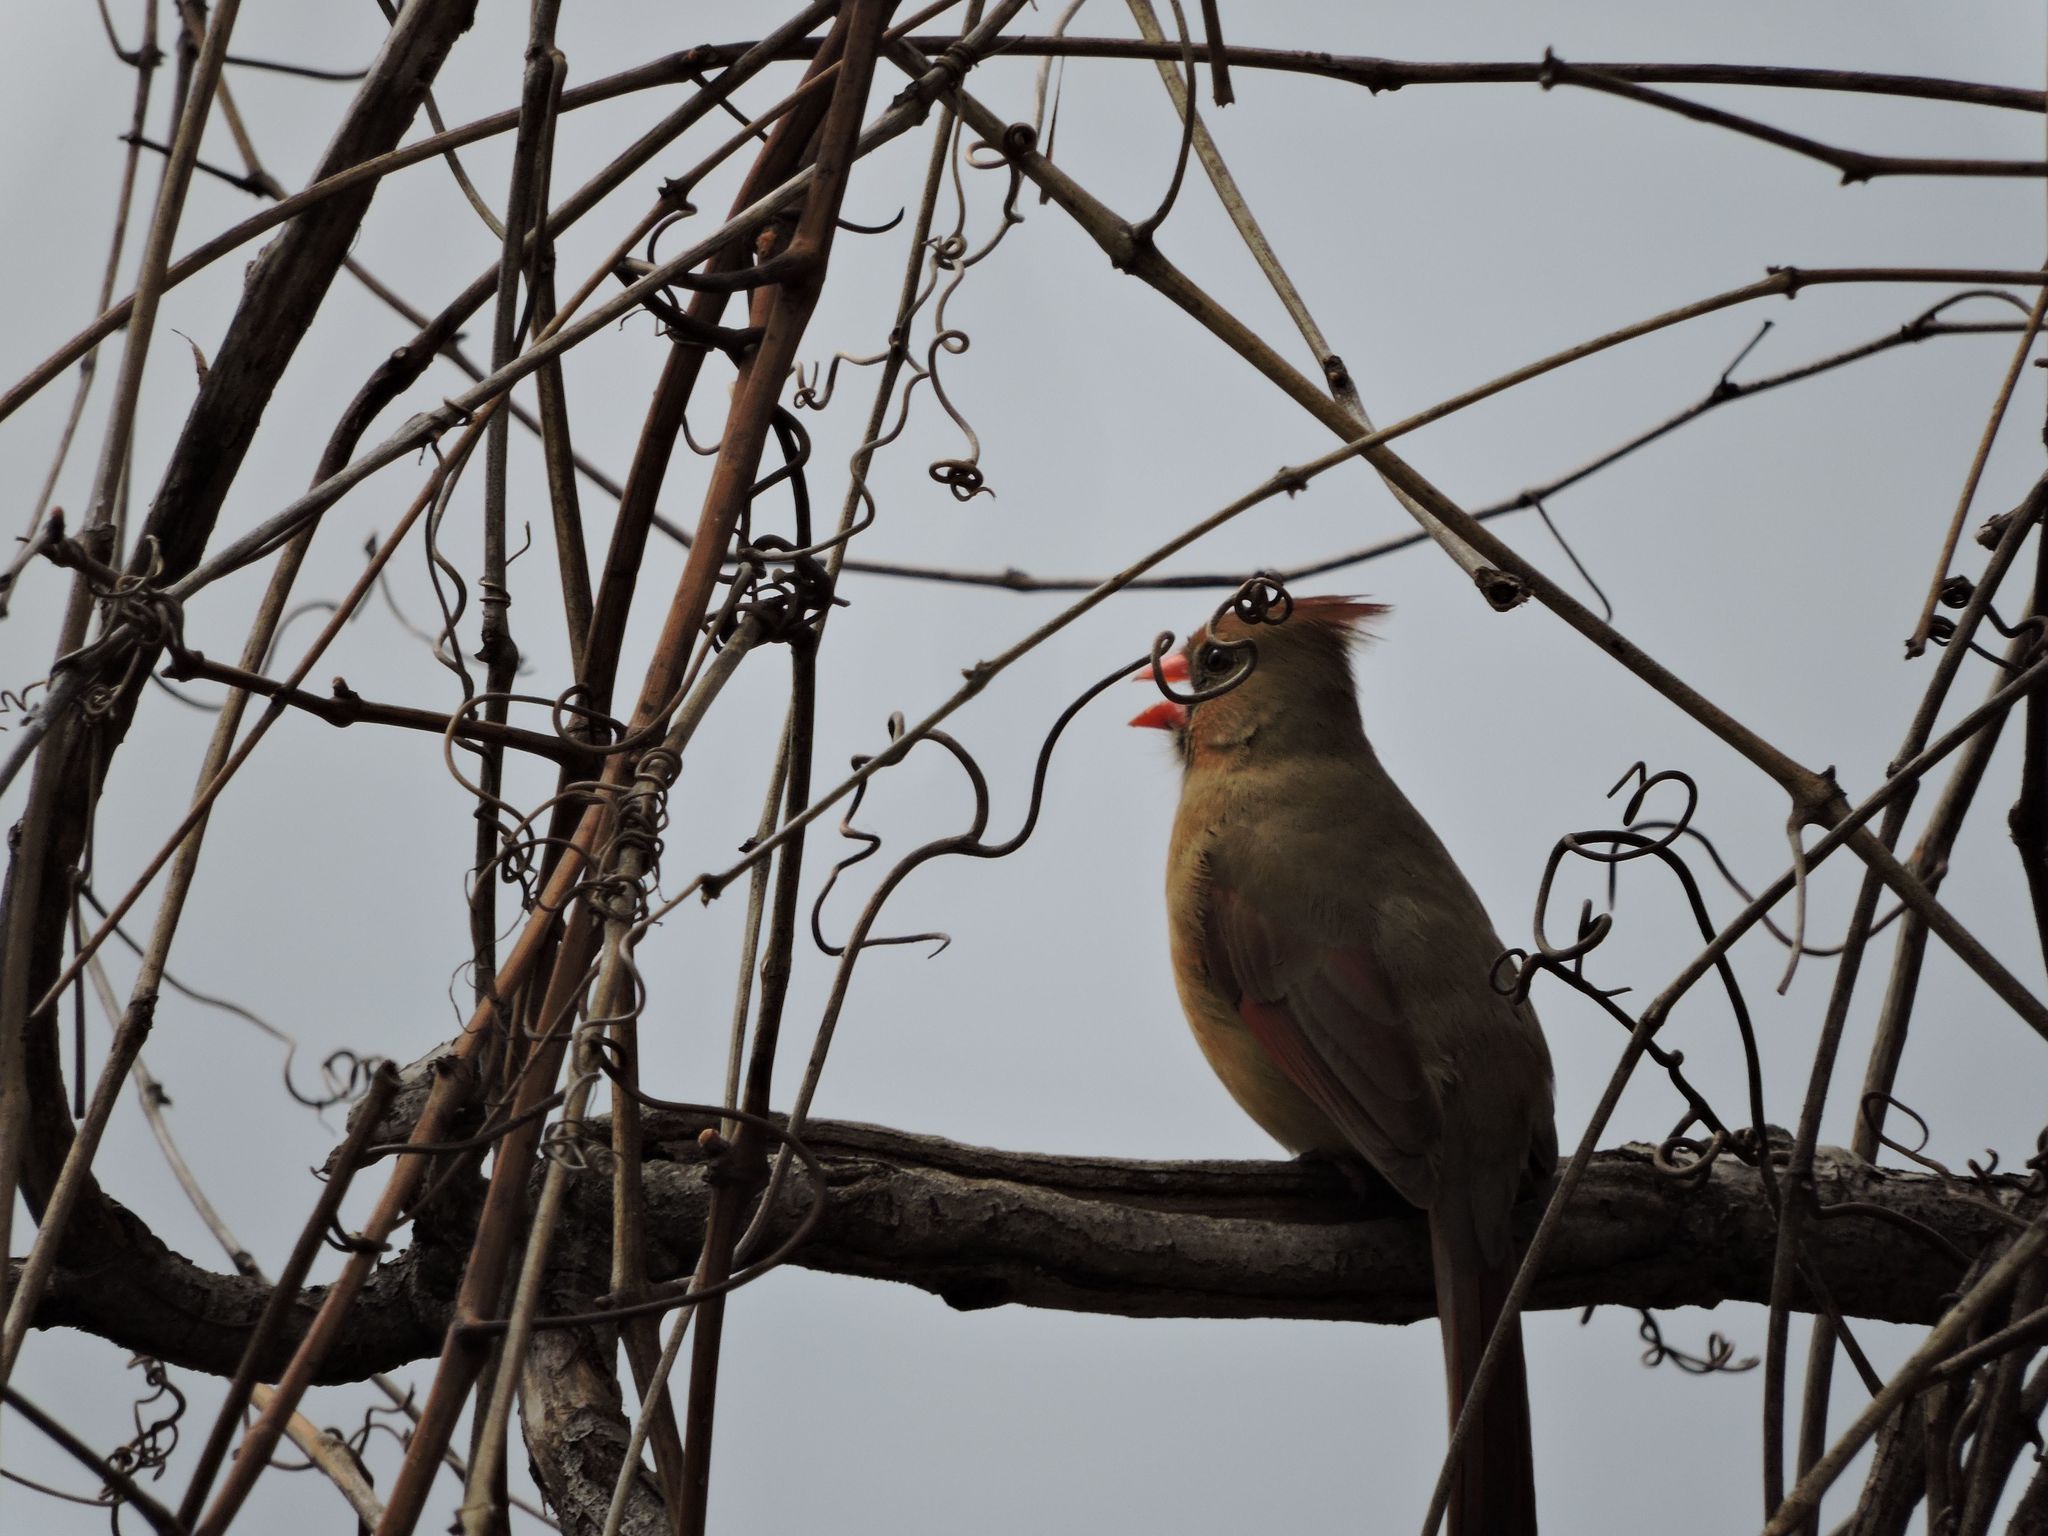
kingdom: Animalia
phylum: Chordata
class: Aves
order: Passeriformes
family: Cardinalidae
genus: Cardinalis
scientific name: Cardinalis cardinalis
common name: Northern cardinal
